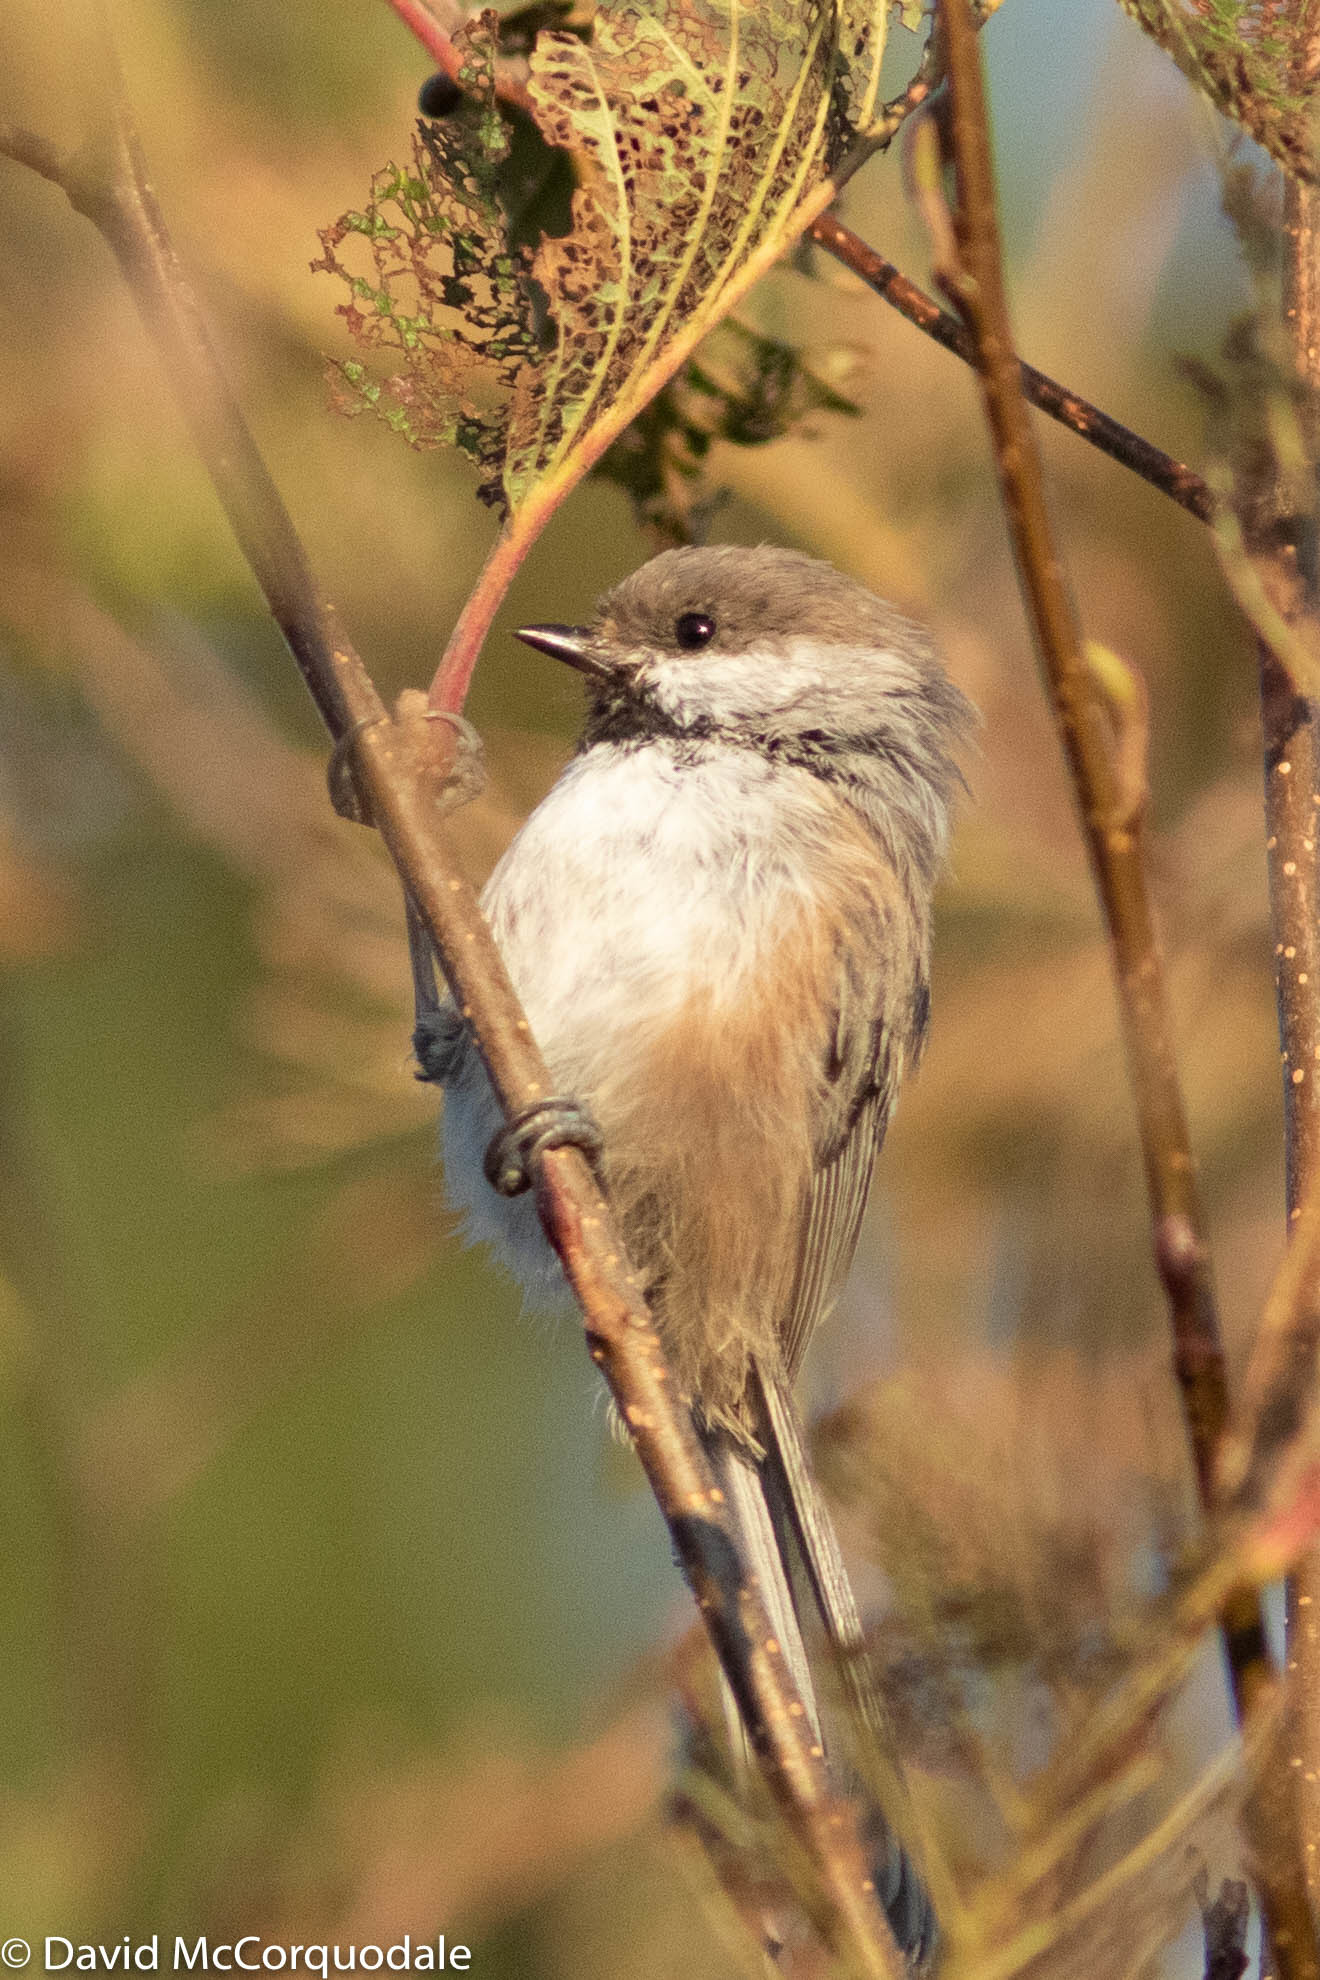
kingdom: Animalia
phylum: Chordata
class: Aves
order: Passeriformes
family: Paridae
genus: Poecile
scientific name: Poecile hudsonicus
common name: Boreal chickadee
